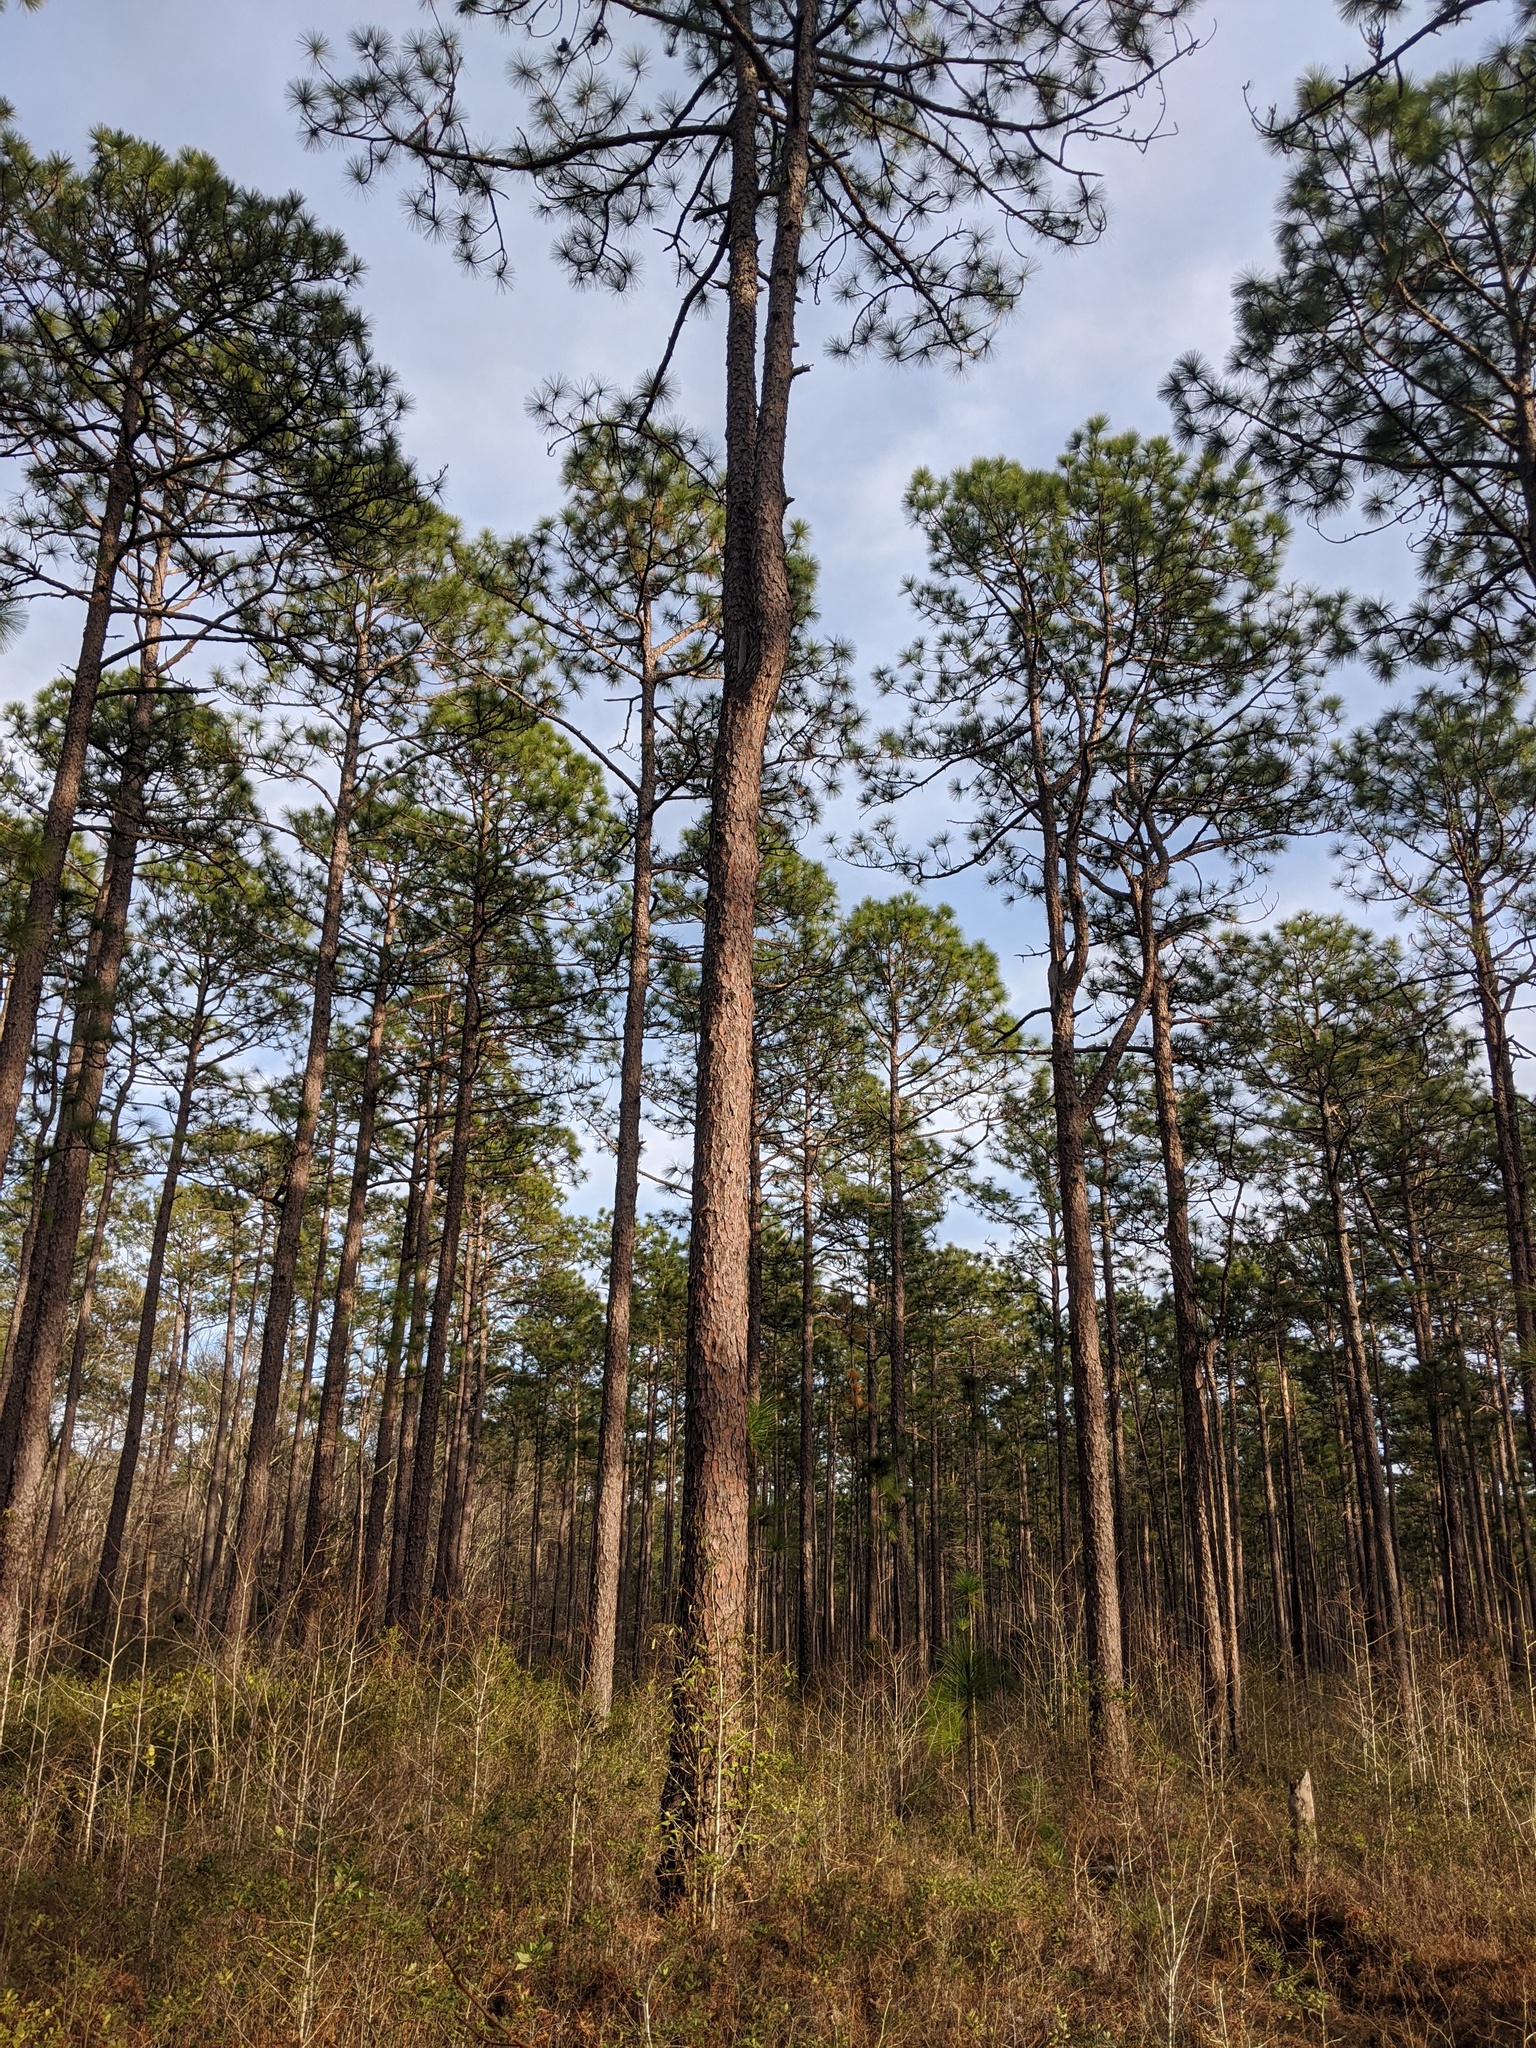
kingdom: Plantae
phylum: Tracheophyta
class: Pinopsida
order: Pinales
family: Pinaceae
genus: Pinus
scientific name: Pinus palustris
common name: Longleaf pine
